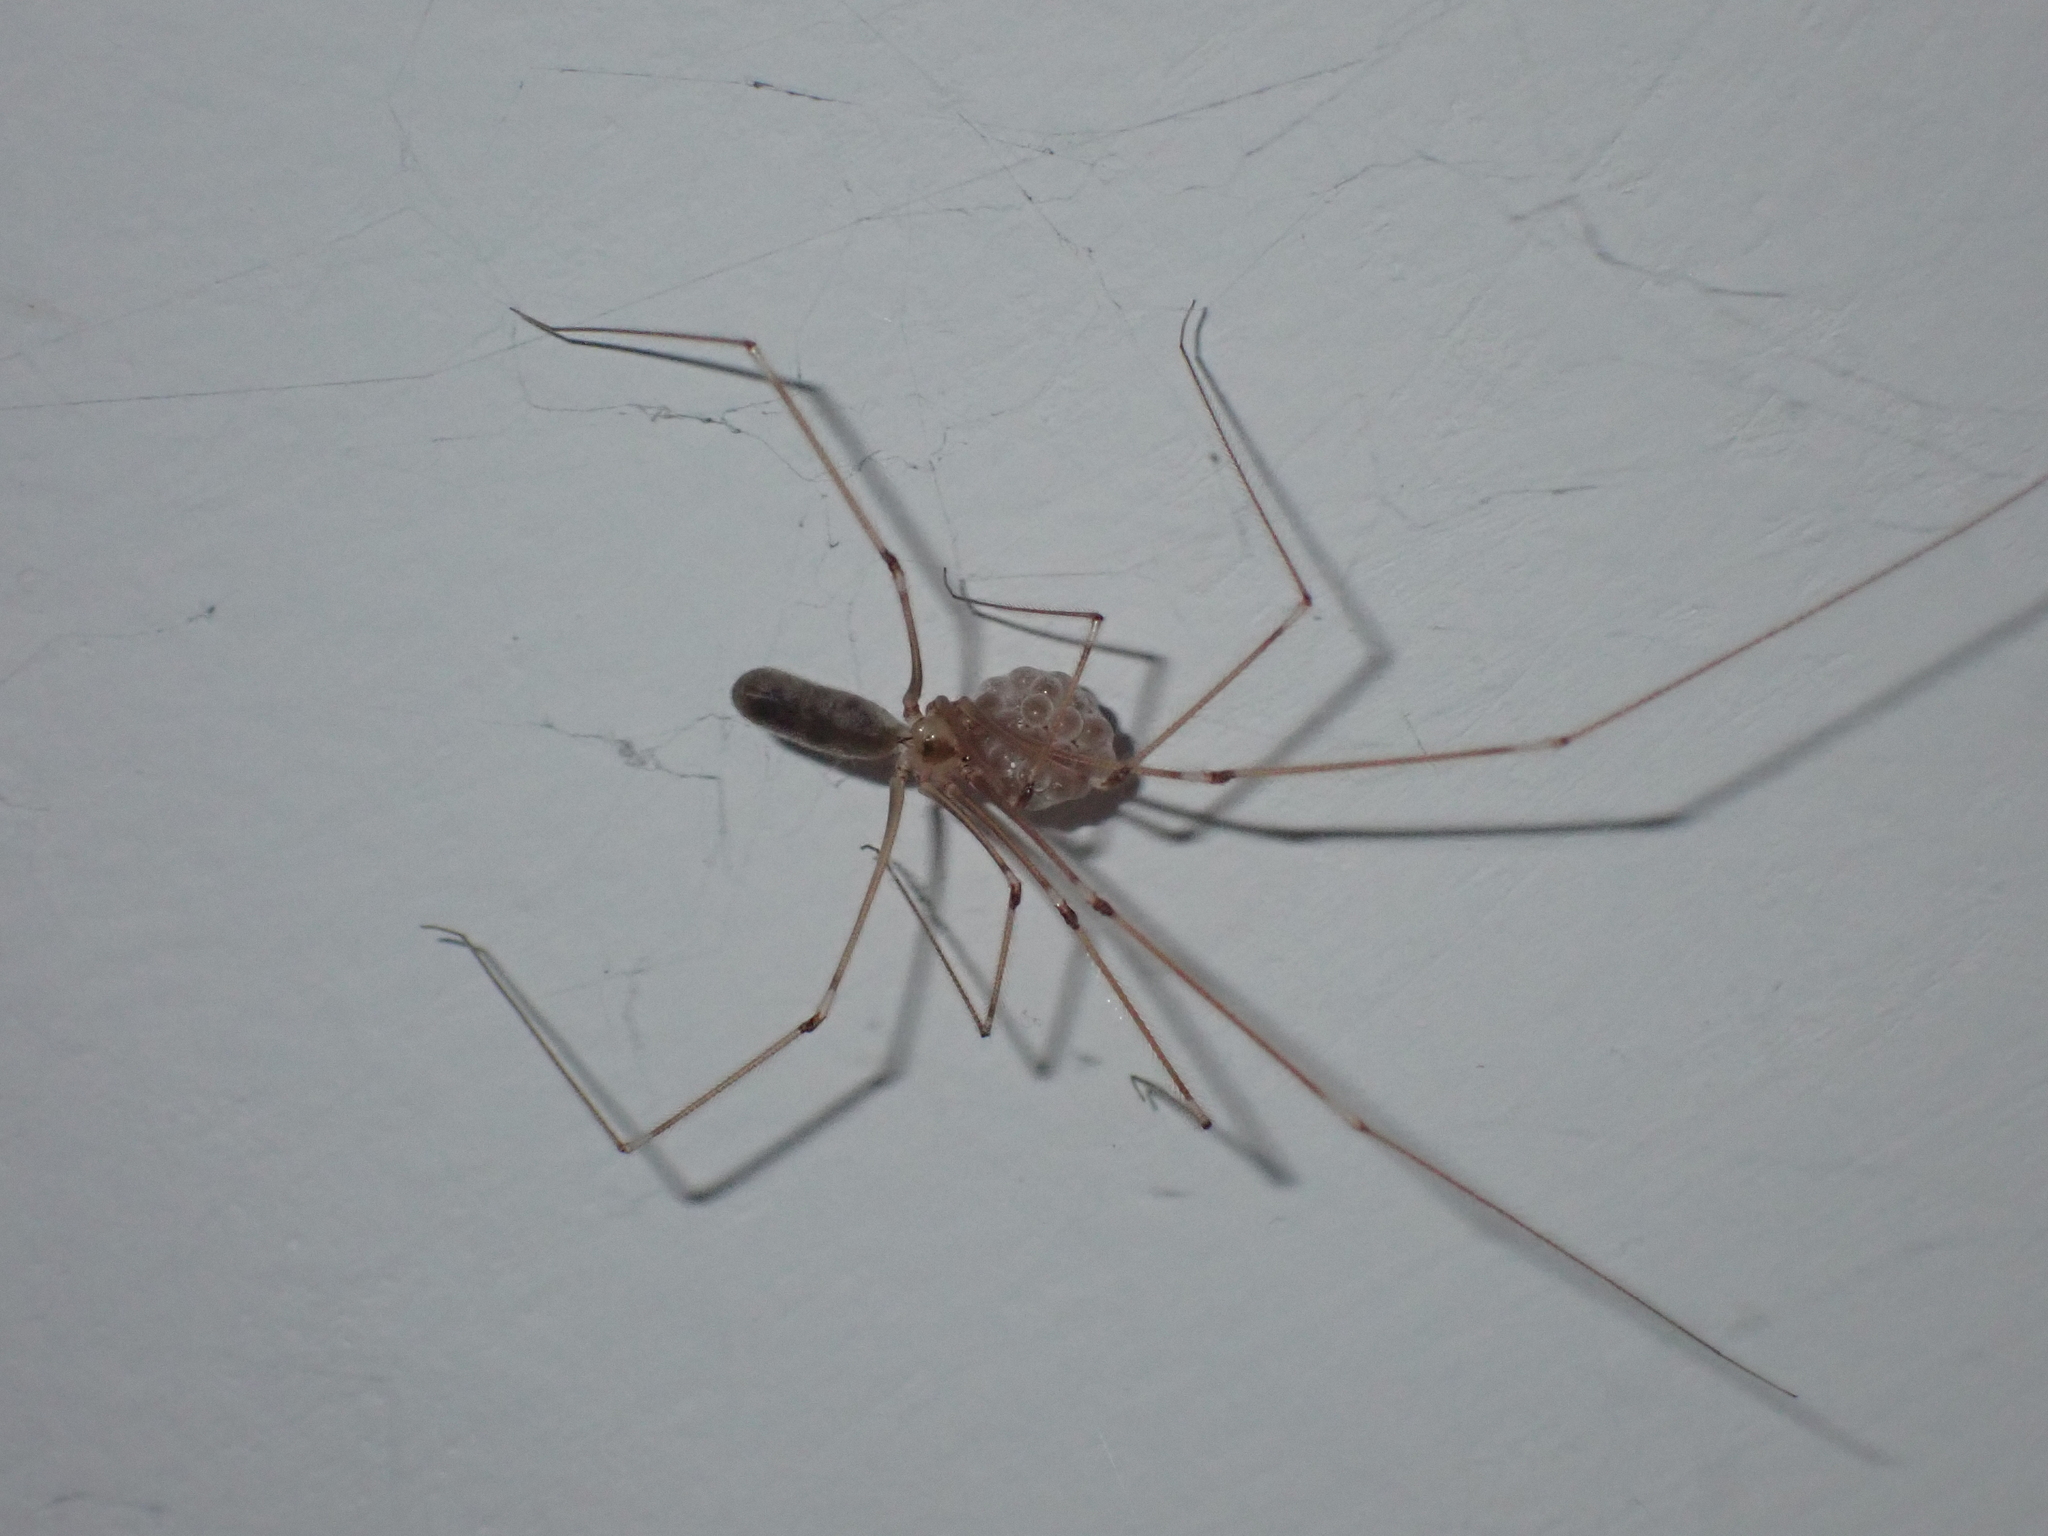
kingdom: Animalia
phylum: Arthropoda
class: Arachnida
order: Araneae
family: Pholcidae
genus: Pholcus
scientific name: Pholcus phalangioides
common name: Longbodied cellar spider
